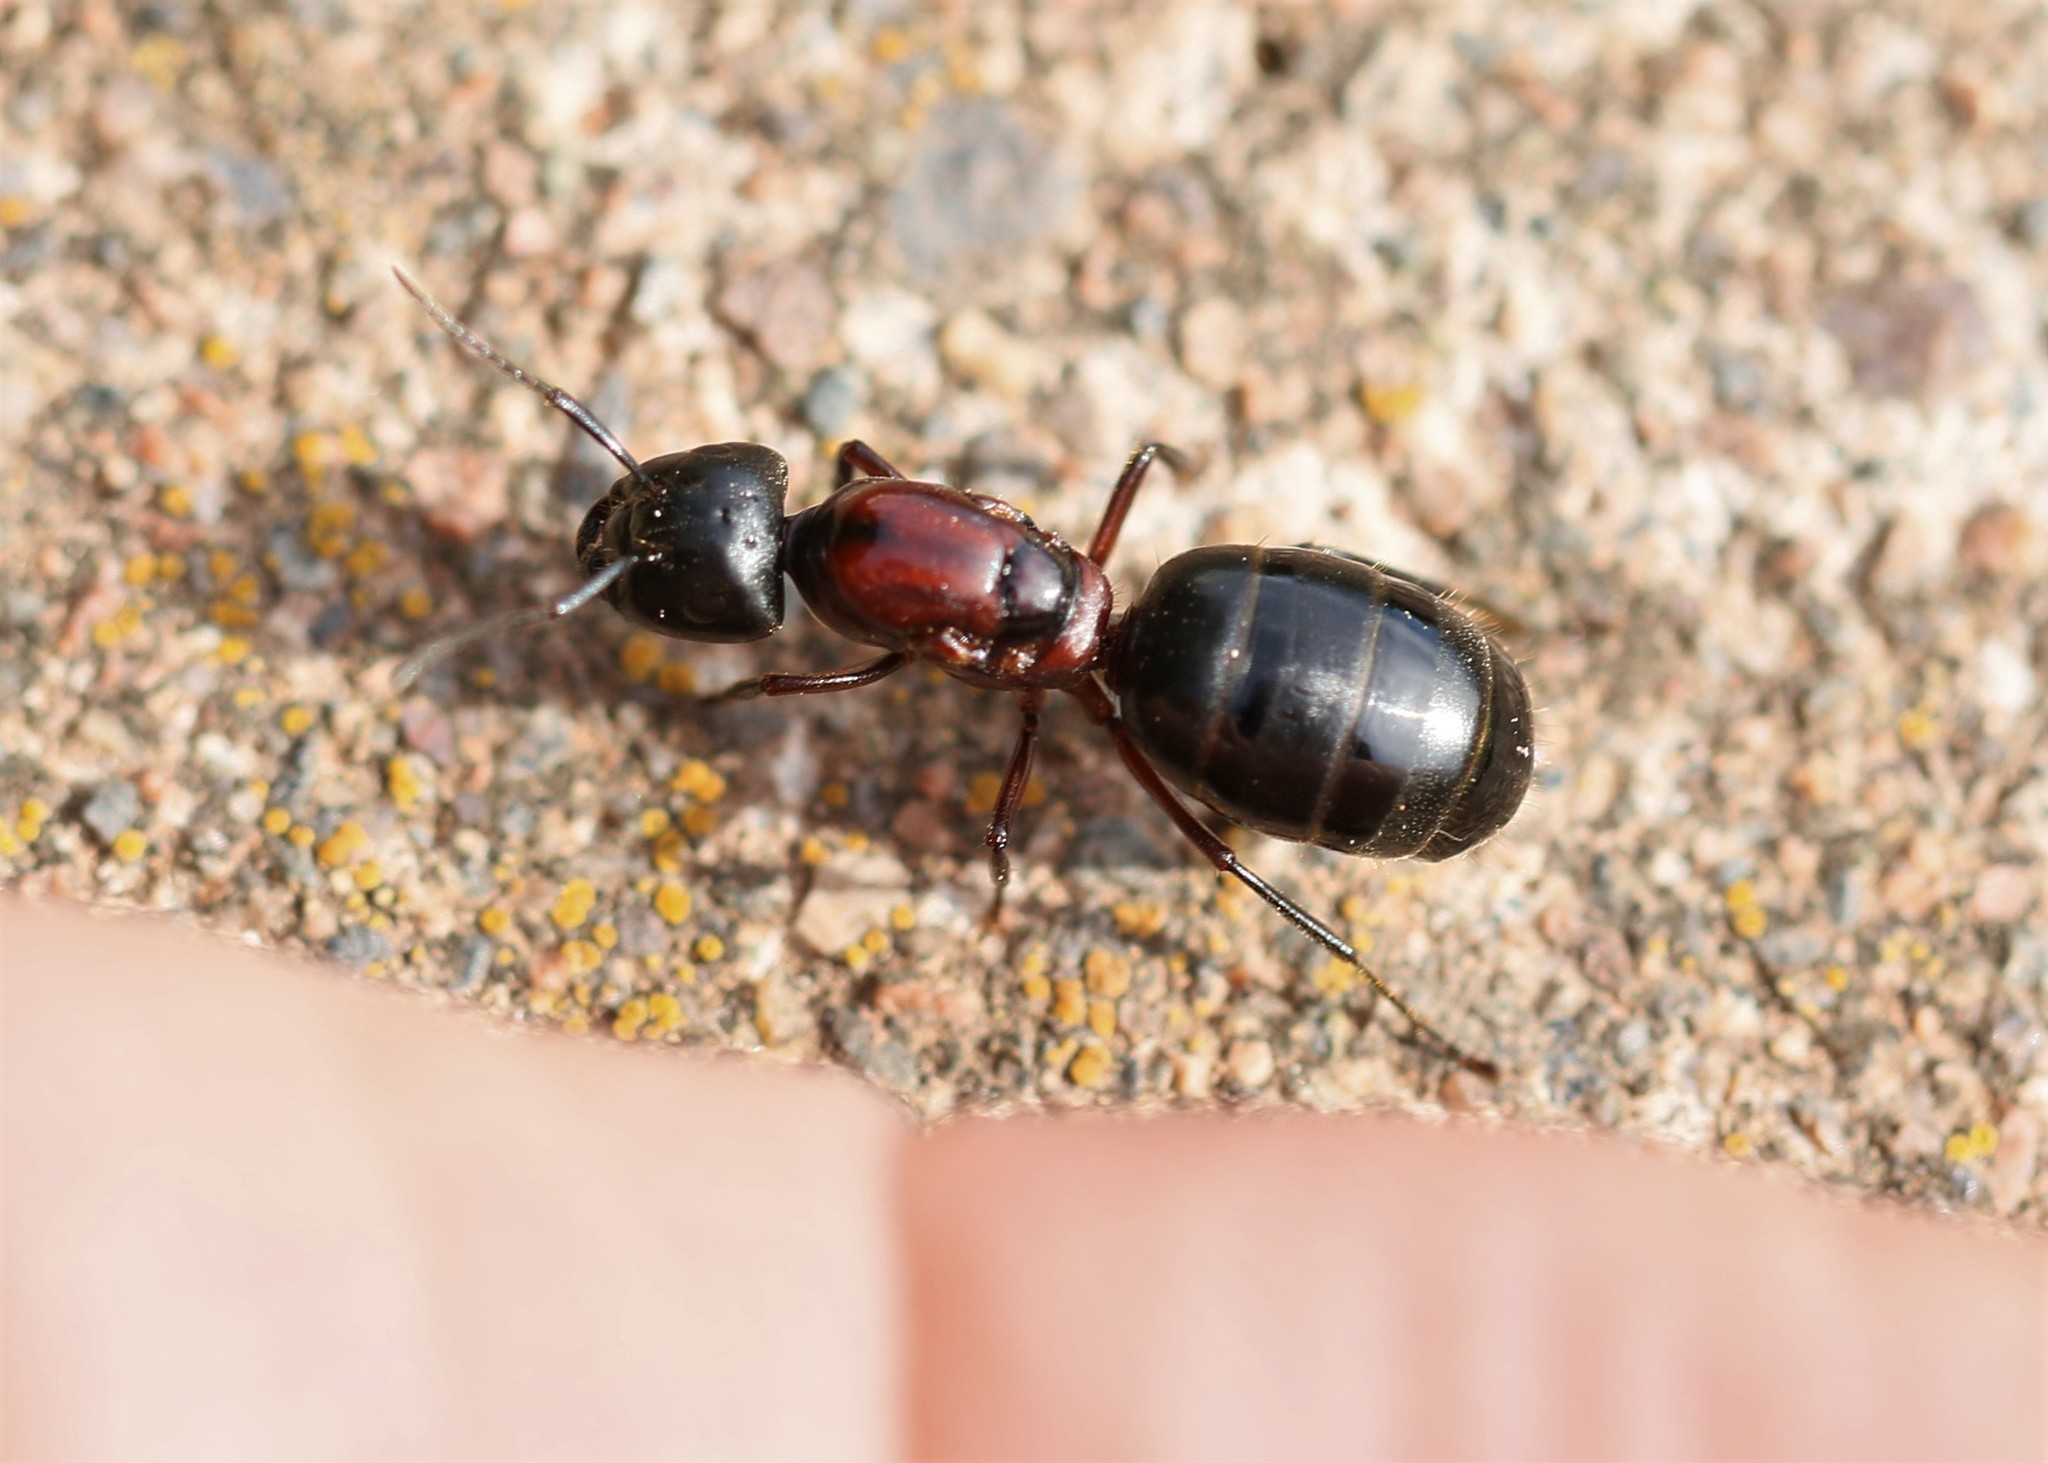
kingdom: Animalia
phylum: Arthropoda
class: Insecta
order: Hymenoptera
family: Formicidae
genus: Camponotus
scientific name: Camponotus novaeboracensis
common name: New york carpenter ant
